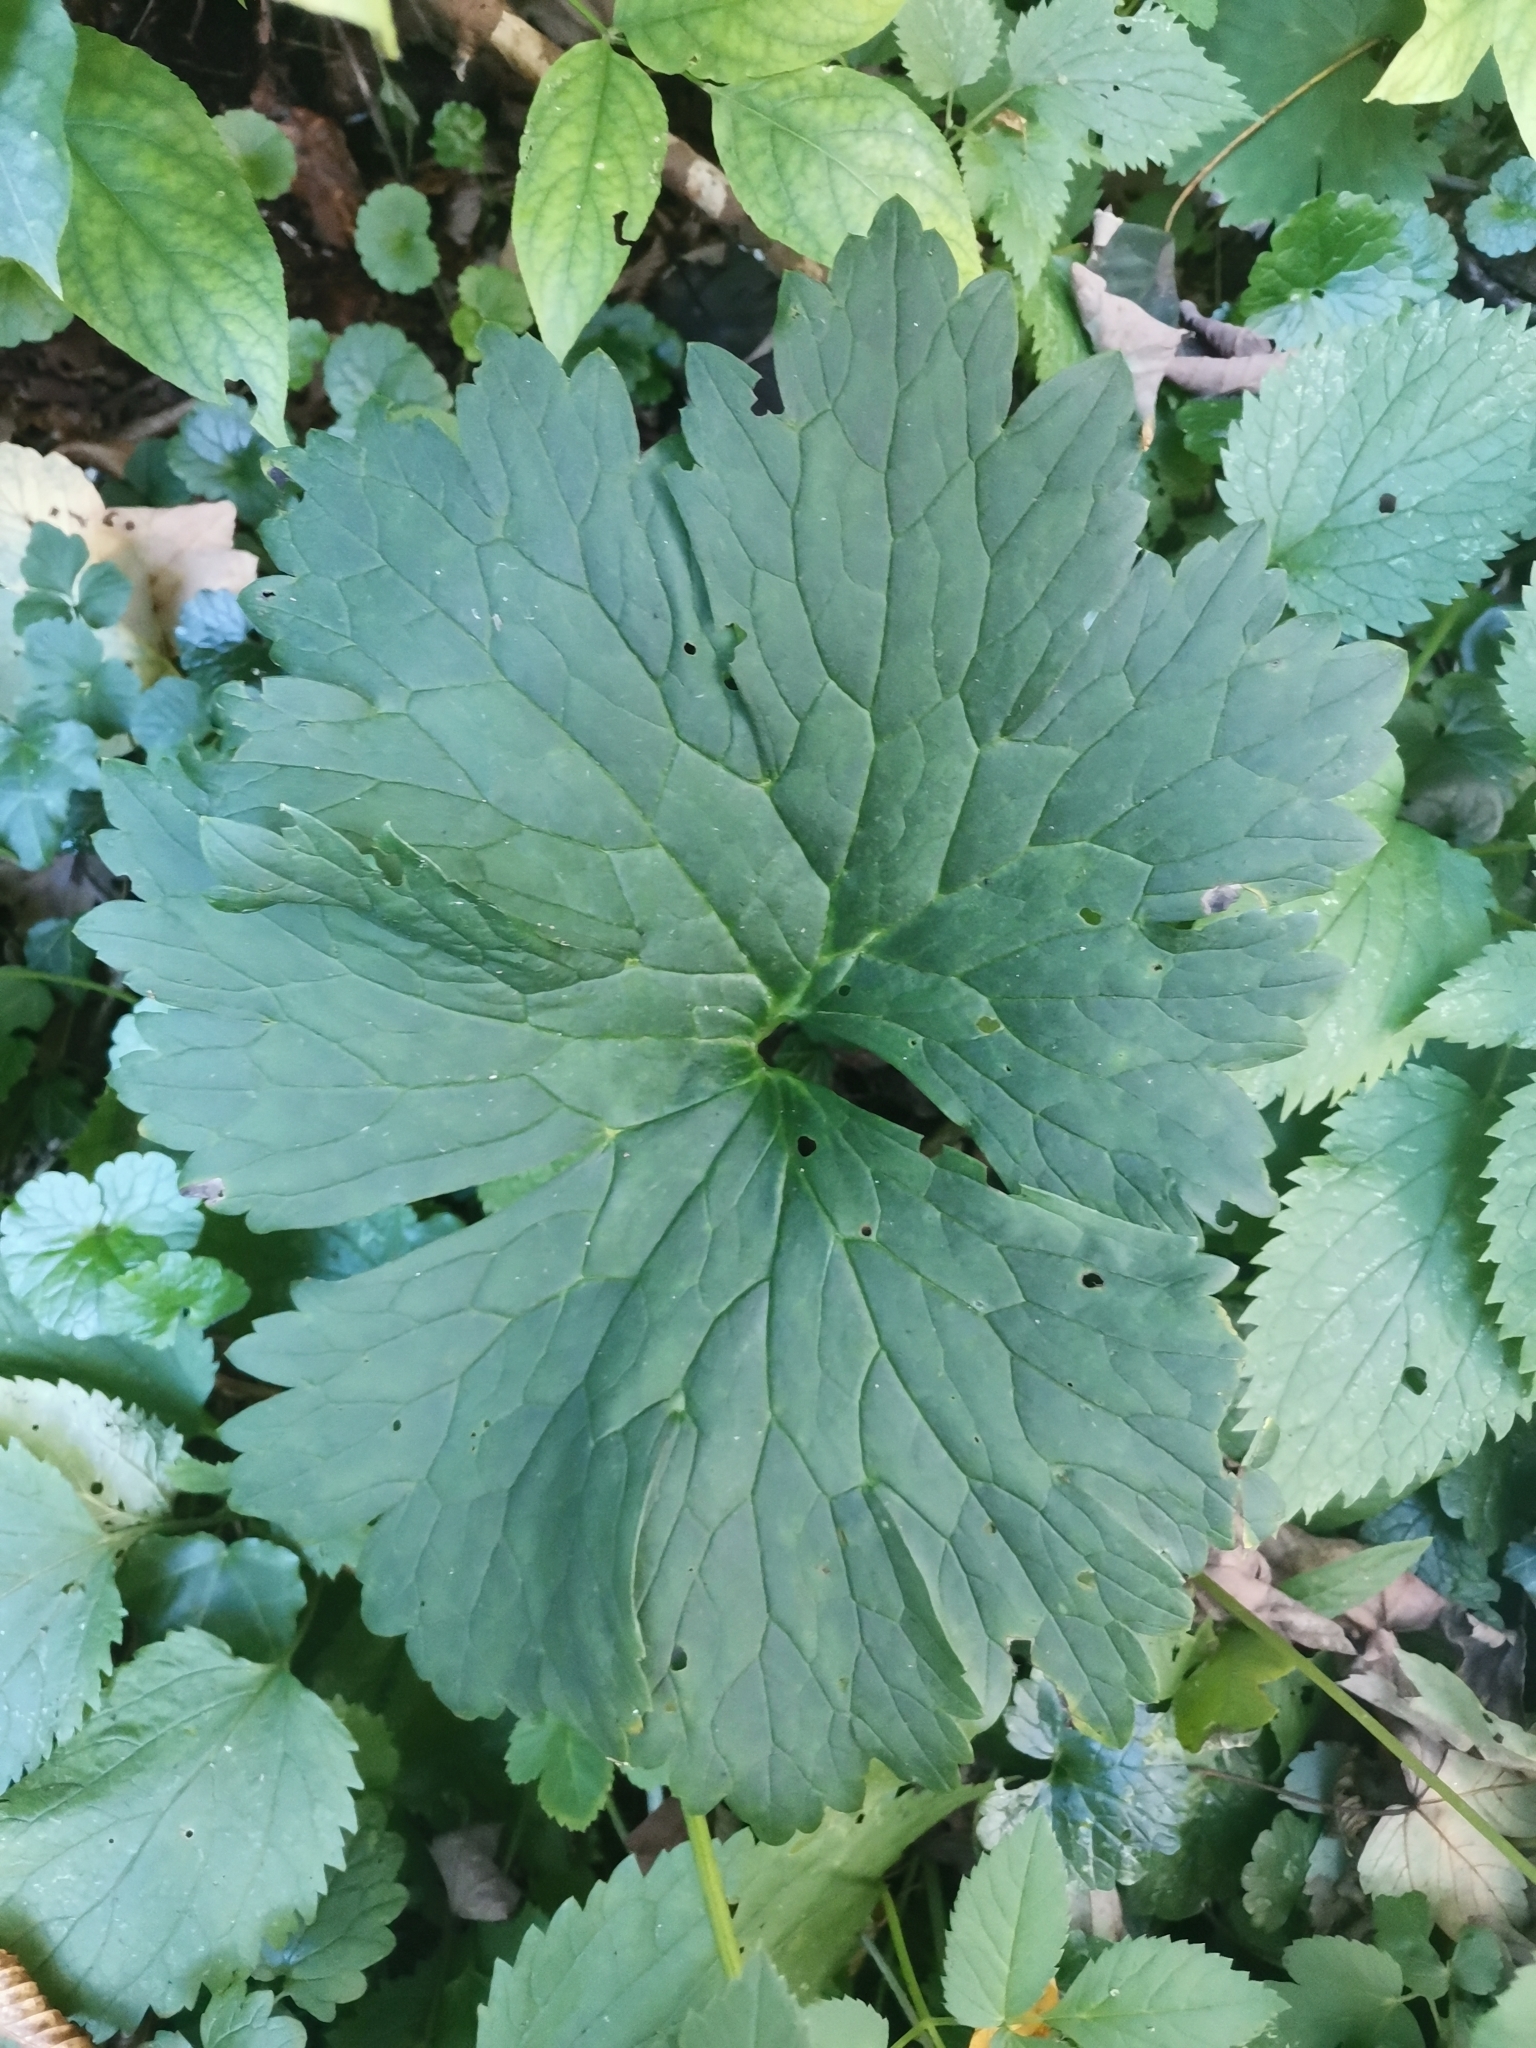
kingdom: Plantae
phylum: Tracheophyta
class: Magnoliopsida
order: Ranunculales
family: Ranunculaceae
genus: Aconitum
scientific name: Aconitum lycoctonum
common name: Wolf's-bane
